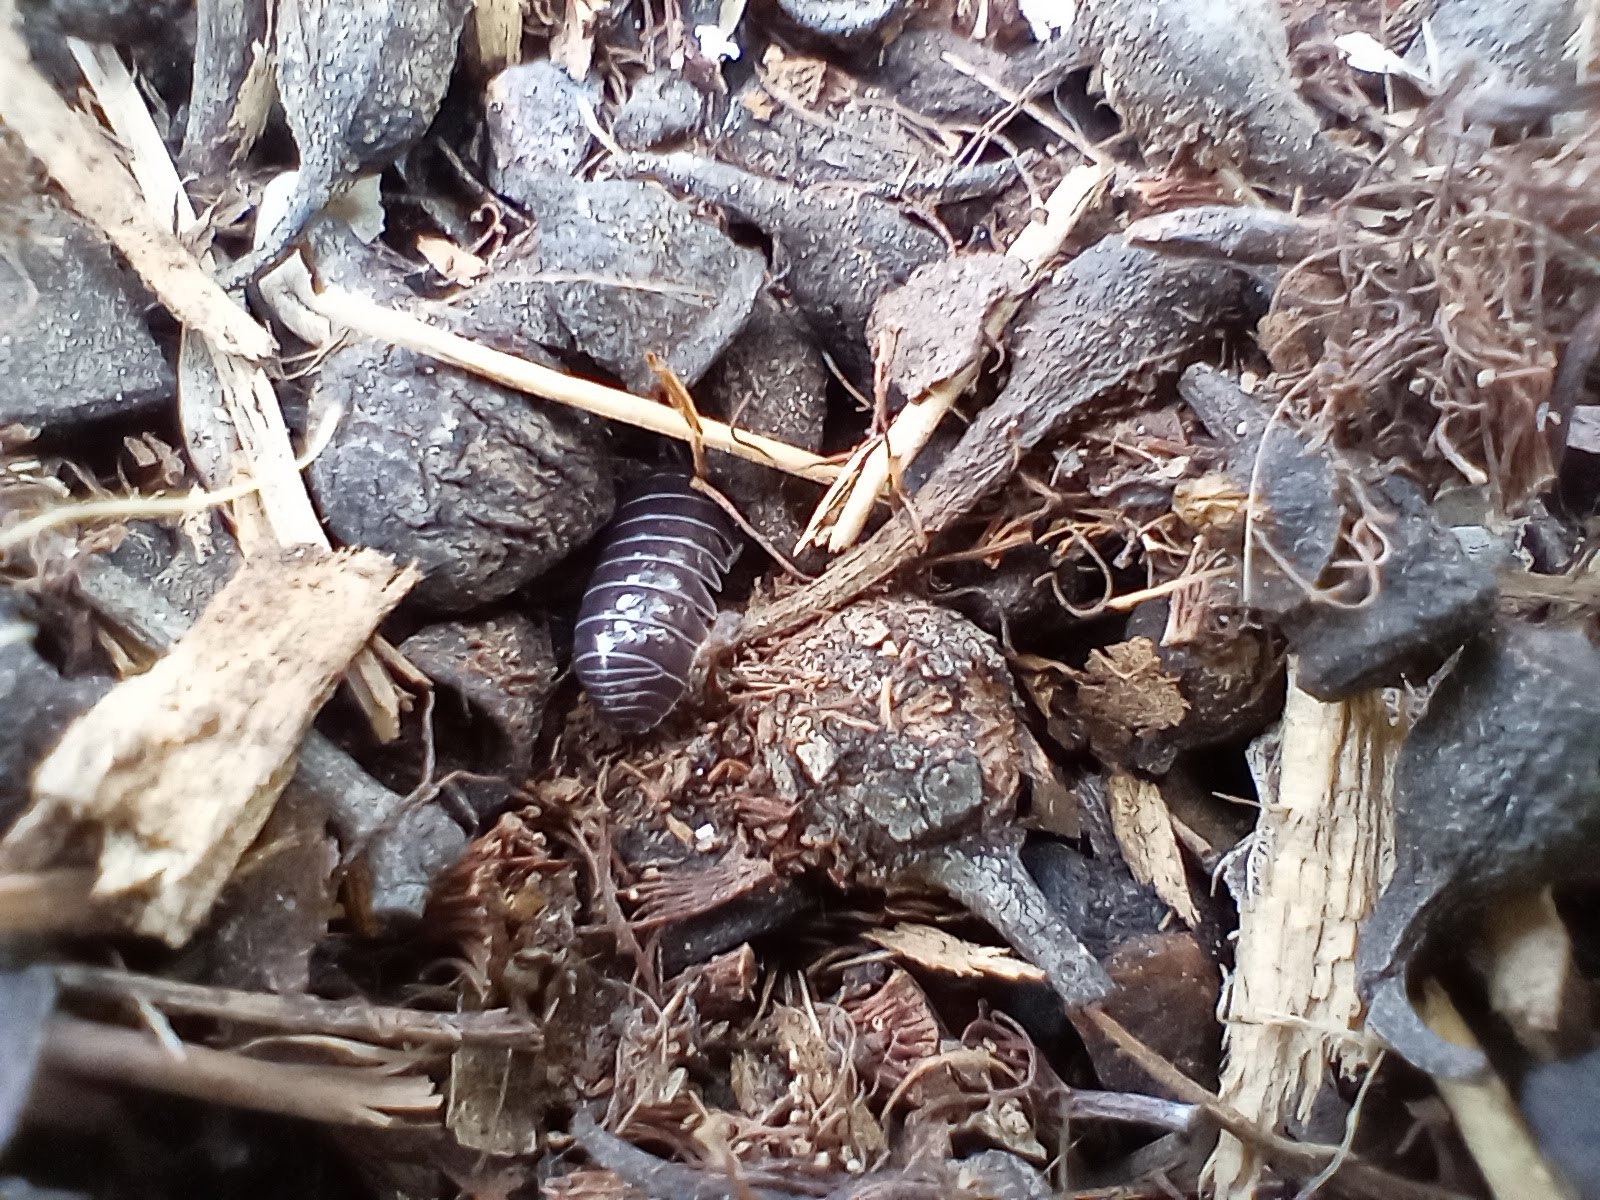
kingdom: Animalia
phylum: Arthropoda
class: Malacostraca
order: Isopoda
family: Armadillidiidae
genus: Armadillidium
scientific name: Armadillidium vulgare
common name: Common pill woodlouse
